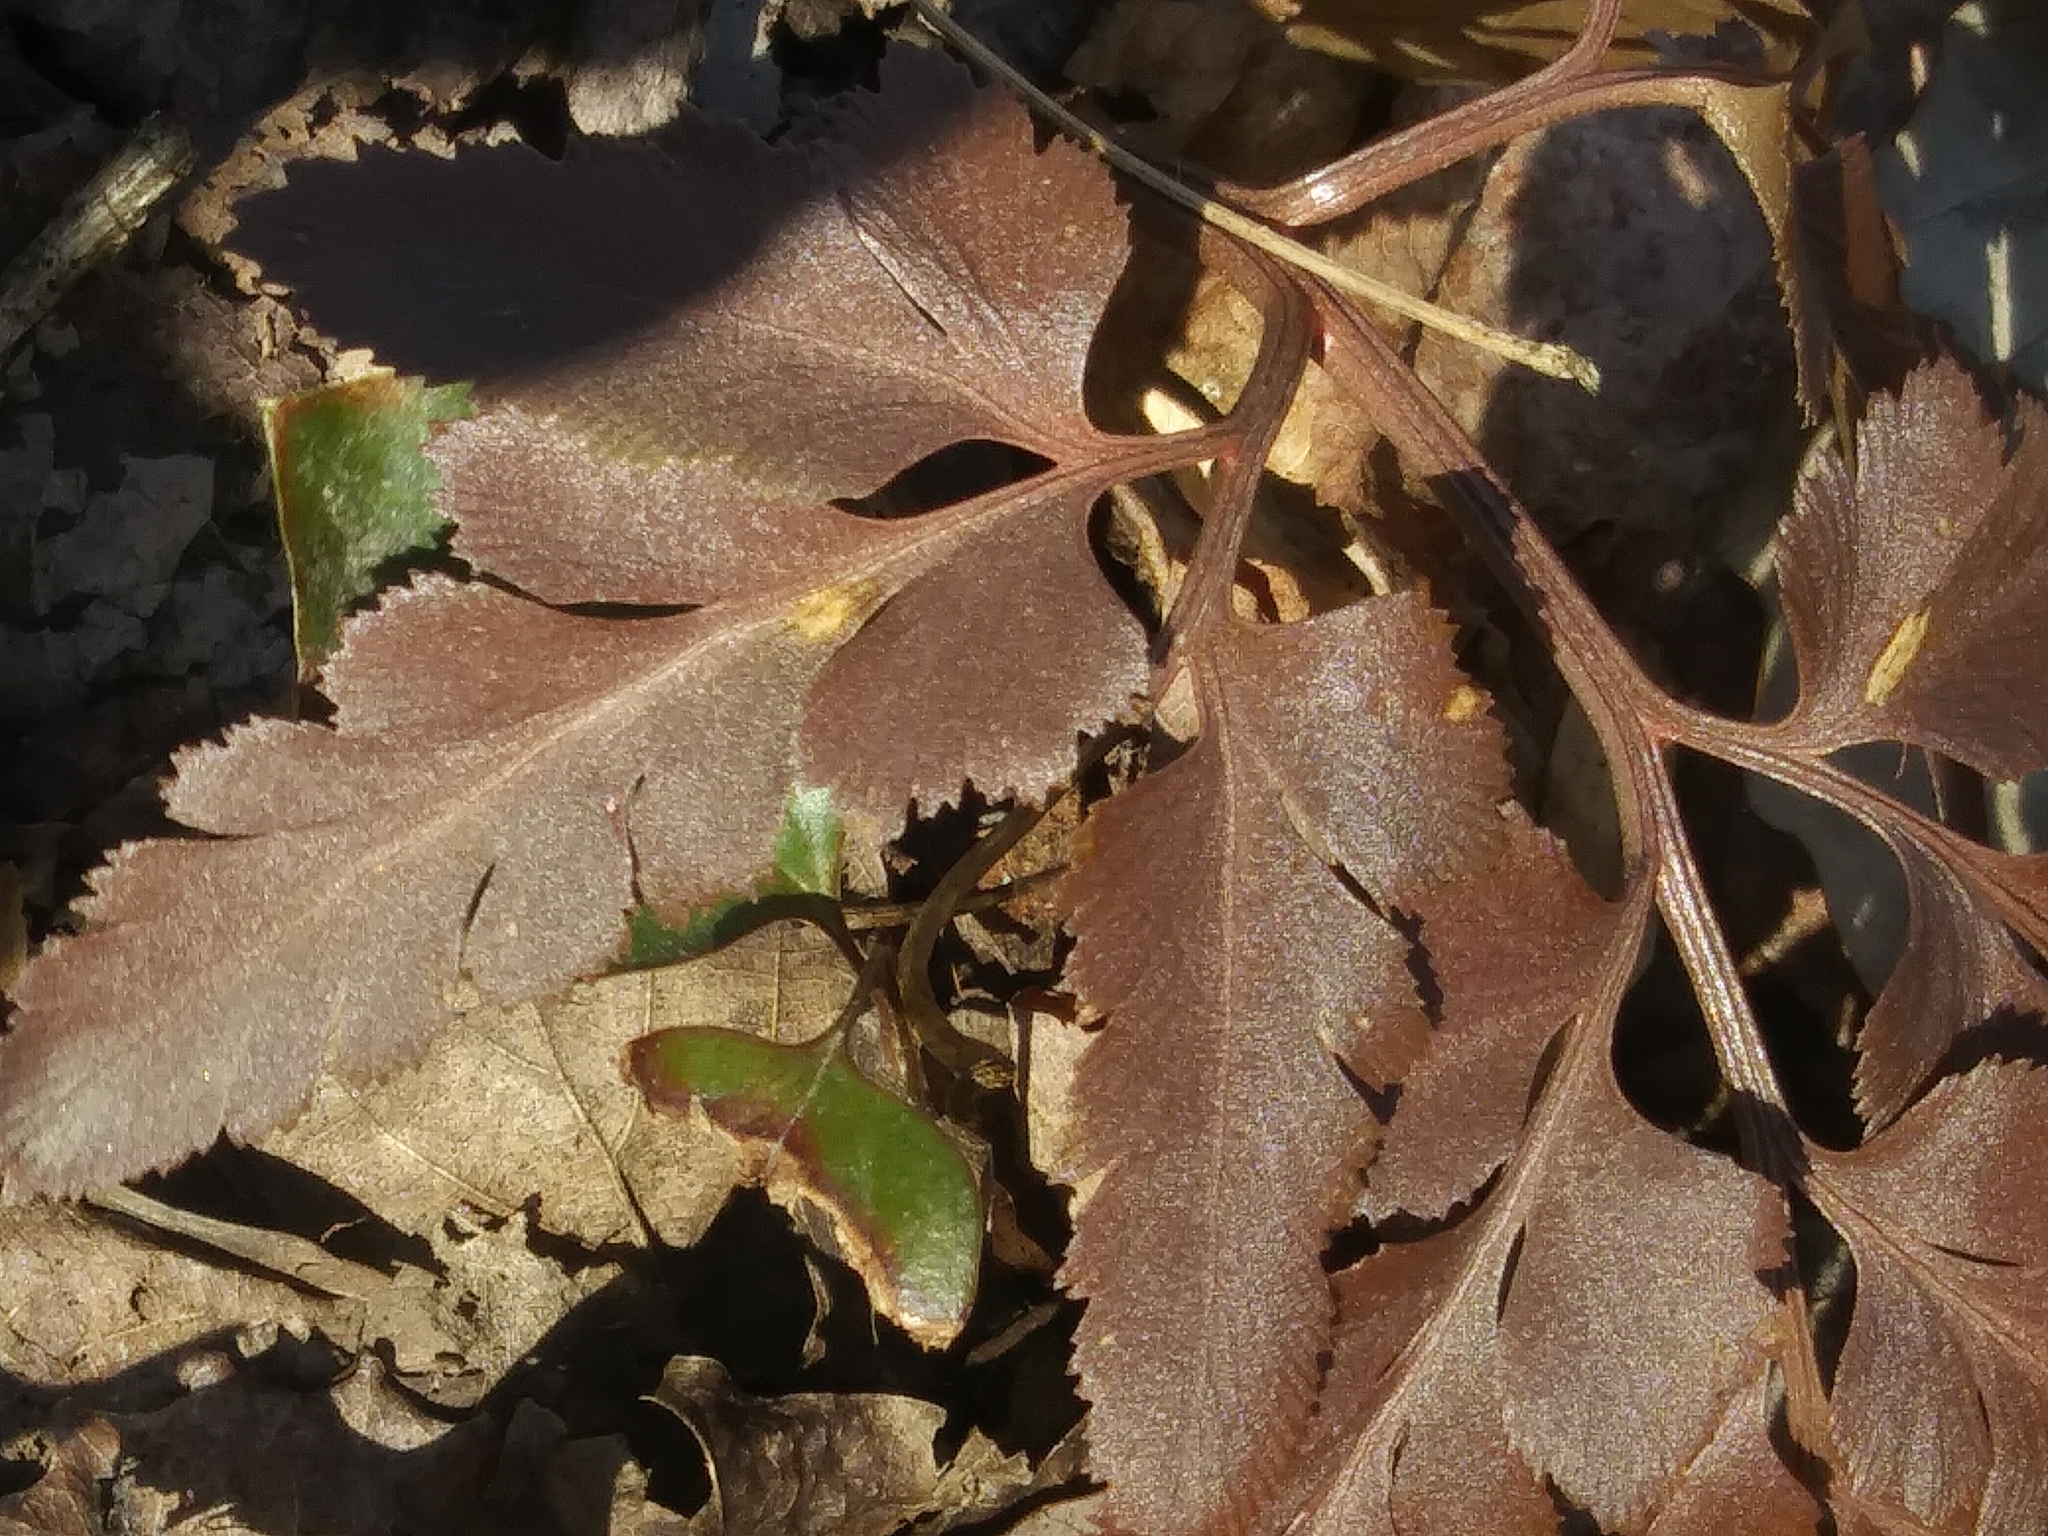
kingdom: Plantae
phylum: Tracheophyta
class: Polypodiopsida
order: Ophioglossales
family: Ophioglossaceae
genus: Sceptridium
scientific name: Sceptridium dissectum
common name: Cut-leaved grapefern
